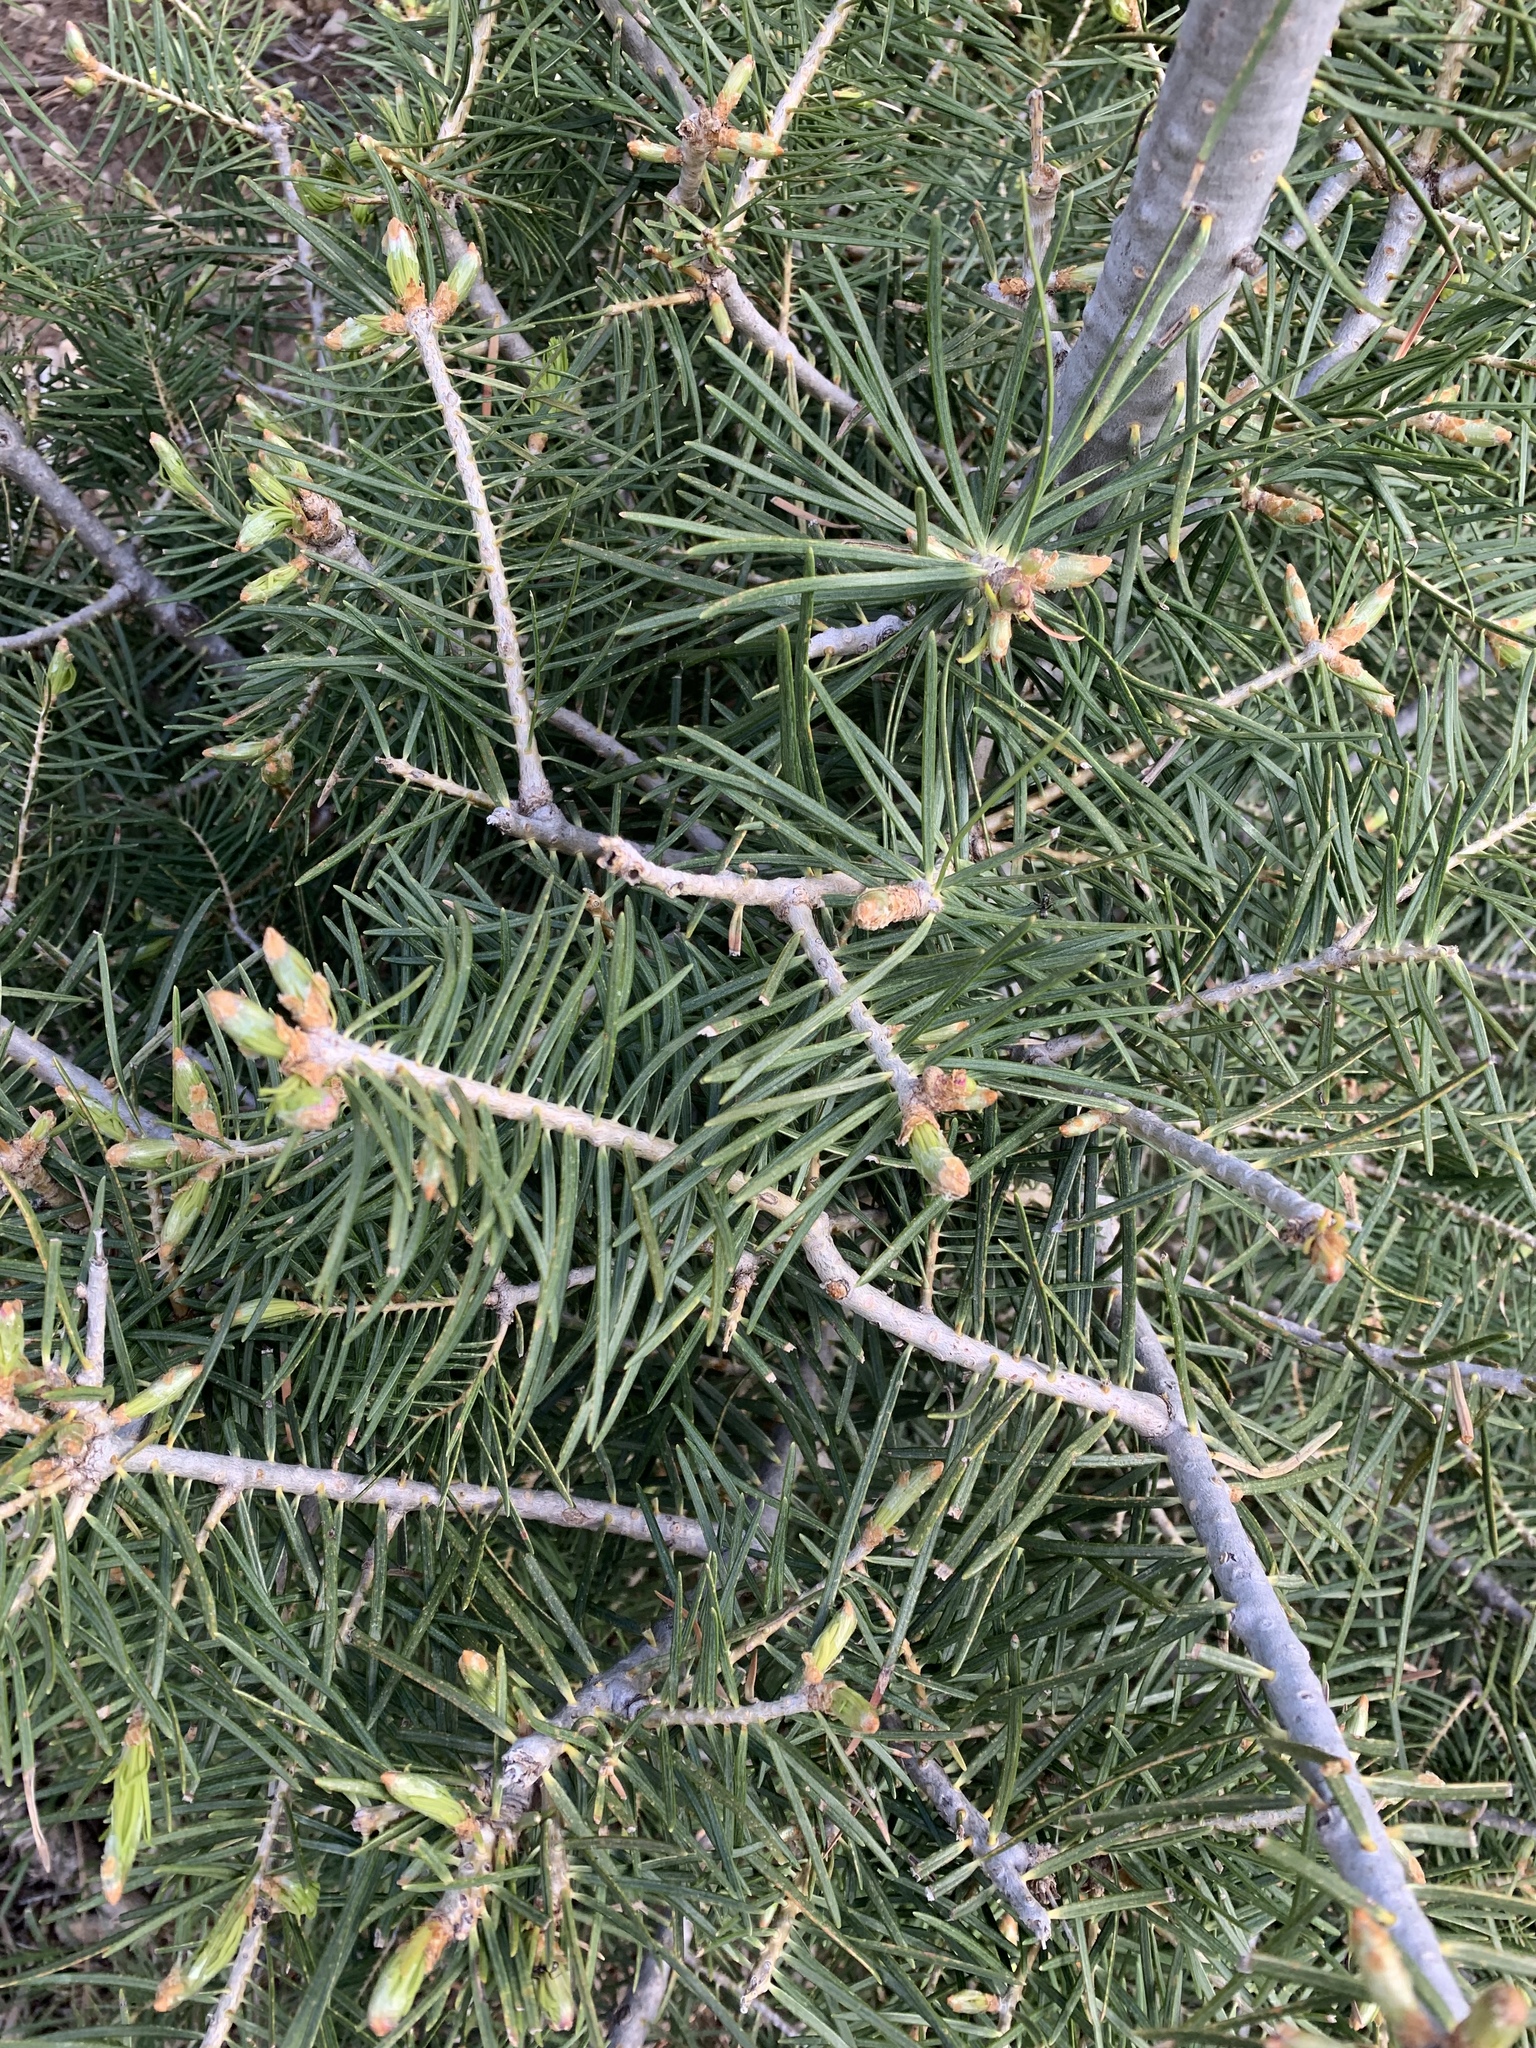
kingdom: Plantae
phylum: Tracheophyta
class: Pinopsida
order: Pinales
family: Pinaceae
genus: Abies
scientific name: Abies concolor
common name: Colorado fir
